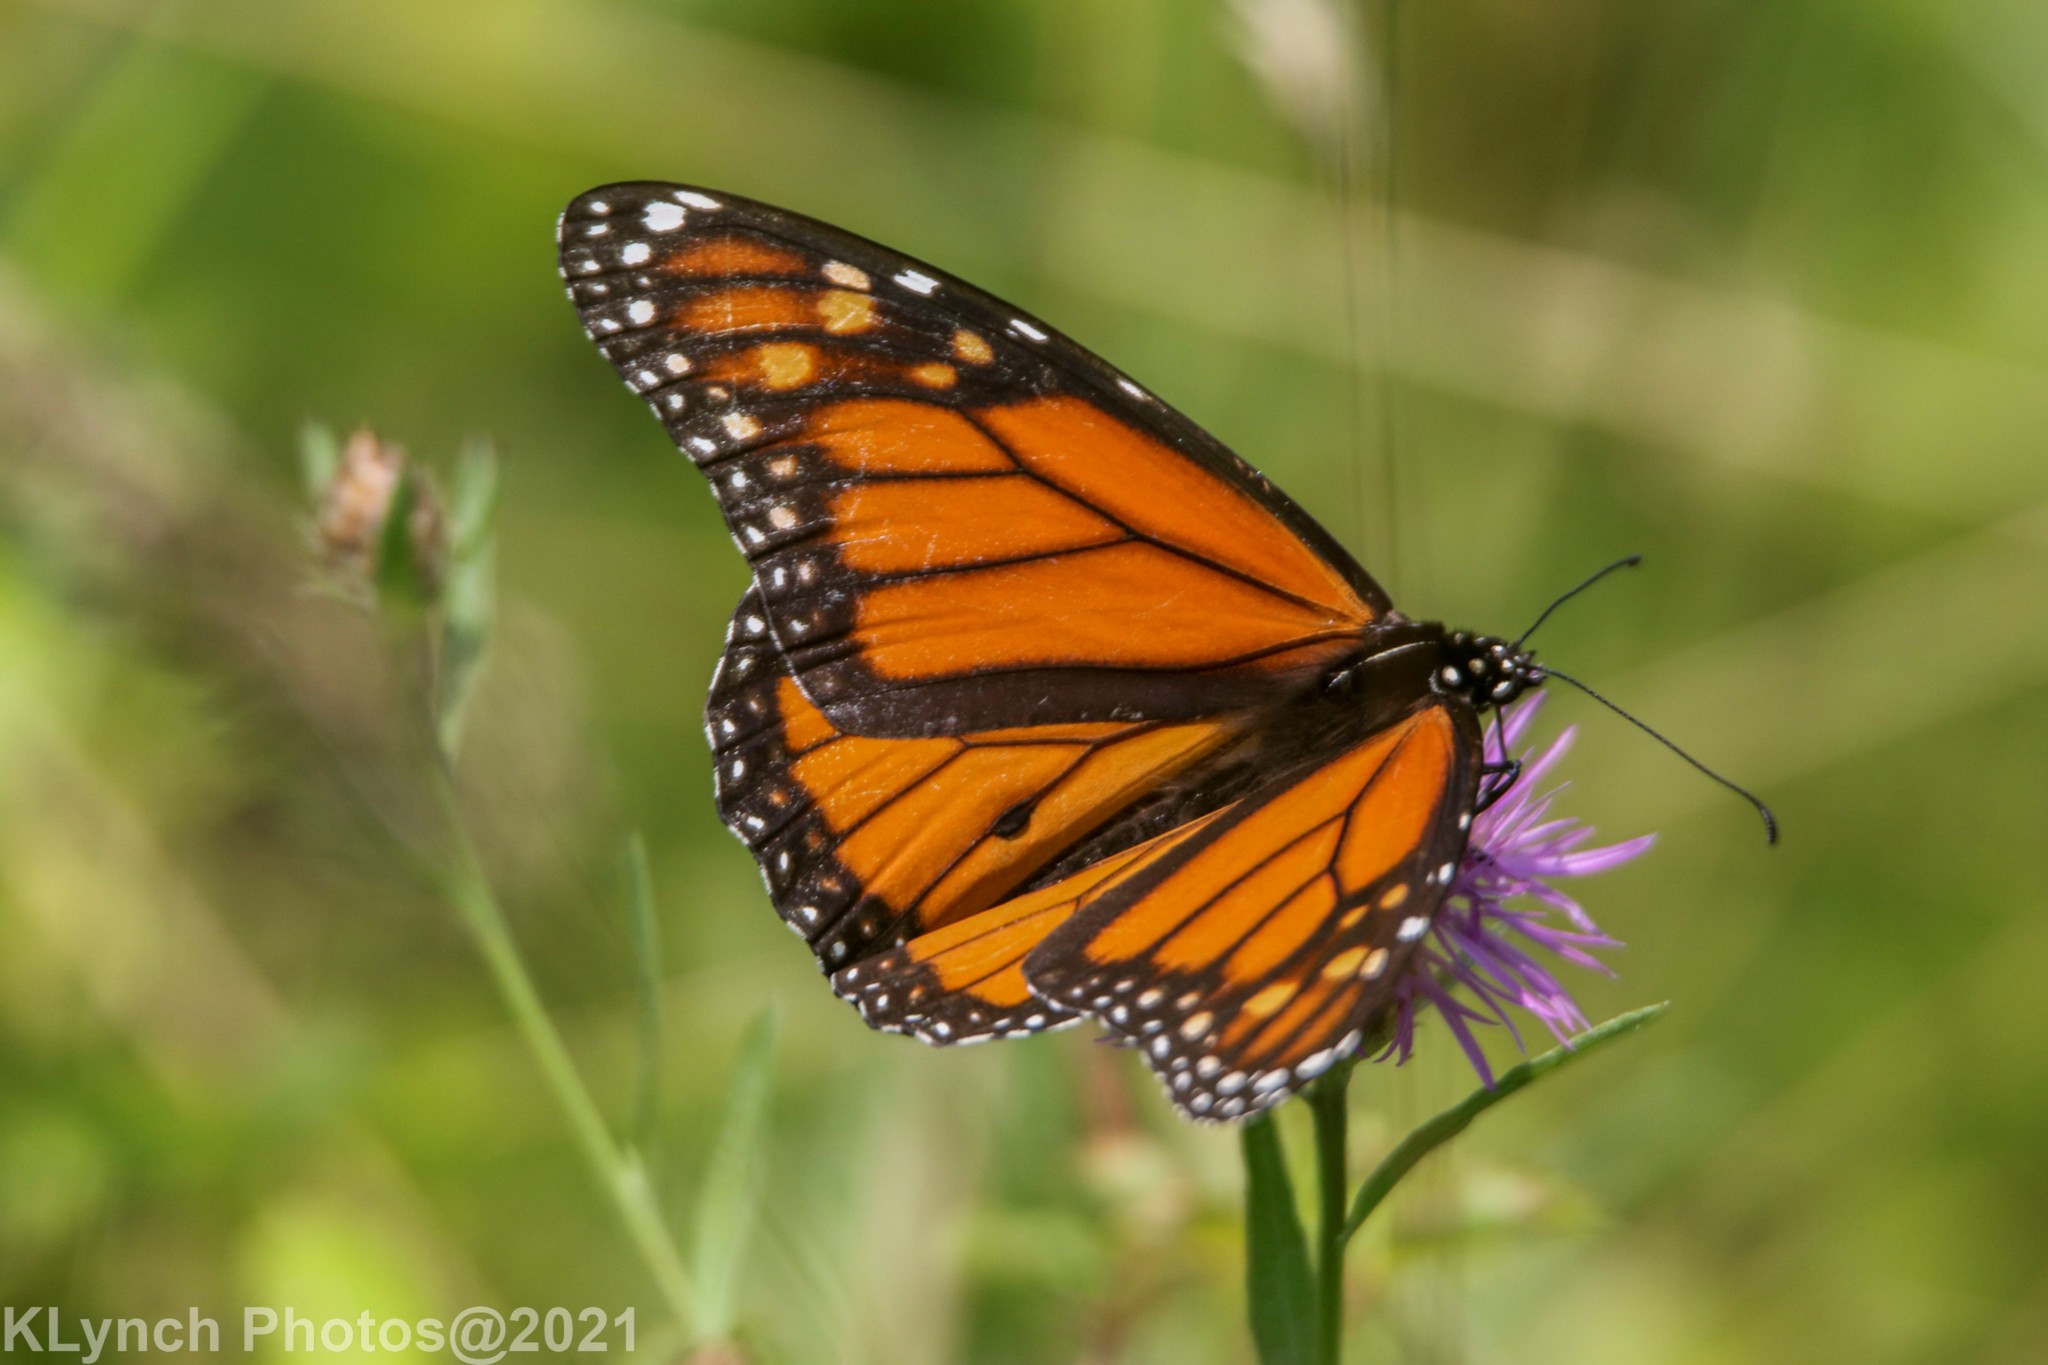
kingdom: Animalia
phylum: Arthropoda
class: Insecta
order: Lepidoptera
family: Nymphalidae
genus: Danaus
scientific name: Danaus plexippus
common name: Monarch
